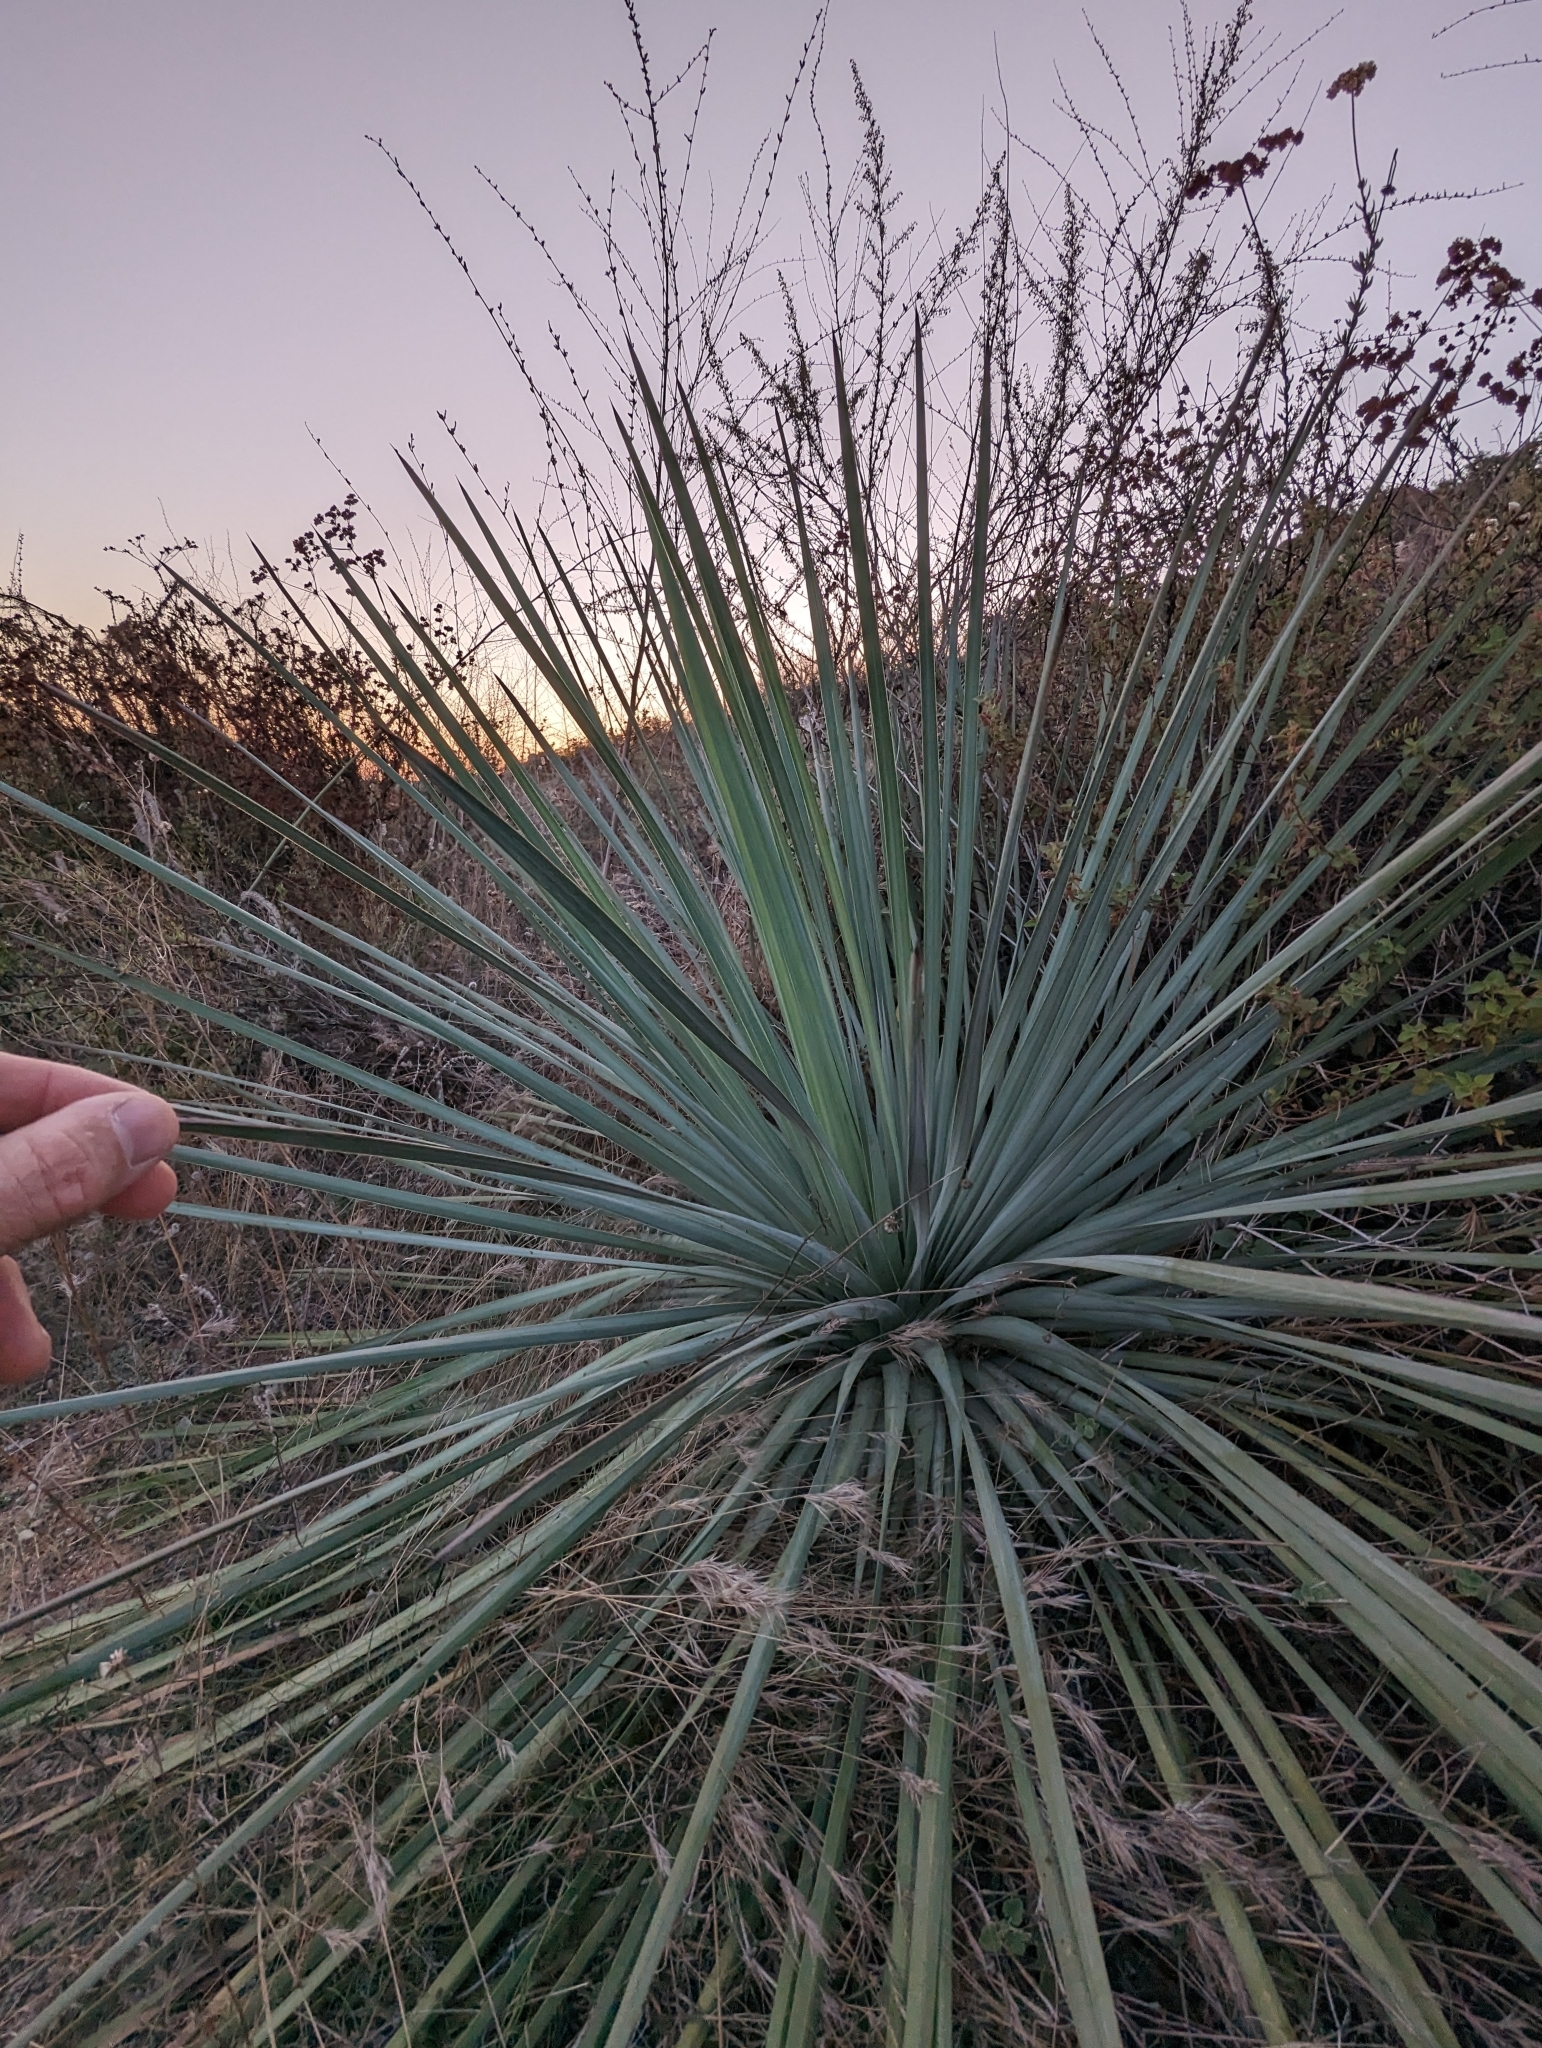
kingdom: Plantae
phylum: Tracheophyta
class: Liliopsida
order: Asparagales
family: Asparagaceae
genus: Hesperoyucca
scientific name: Hesperoyucca whipplei
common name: Our lord's-candle
